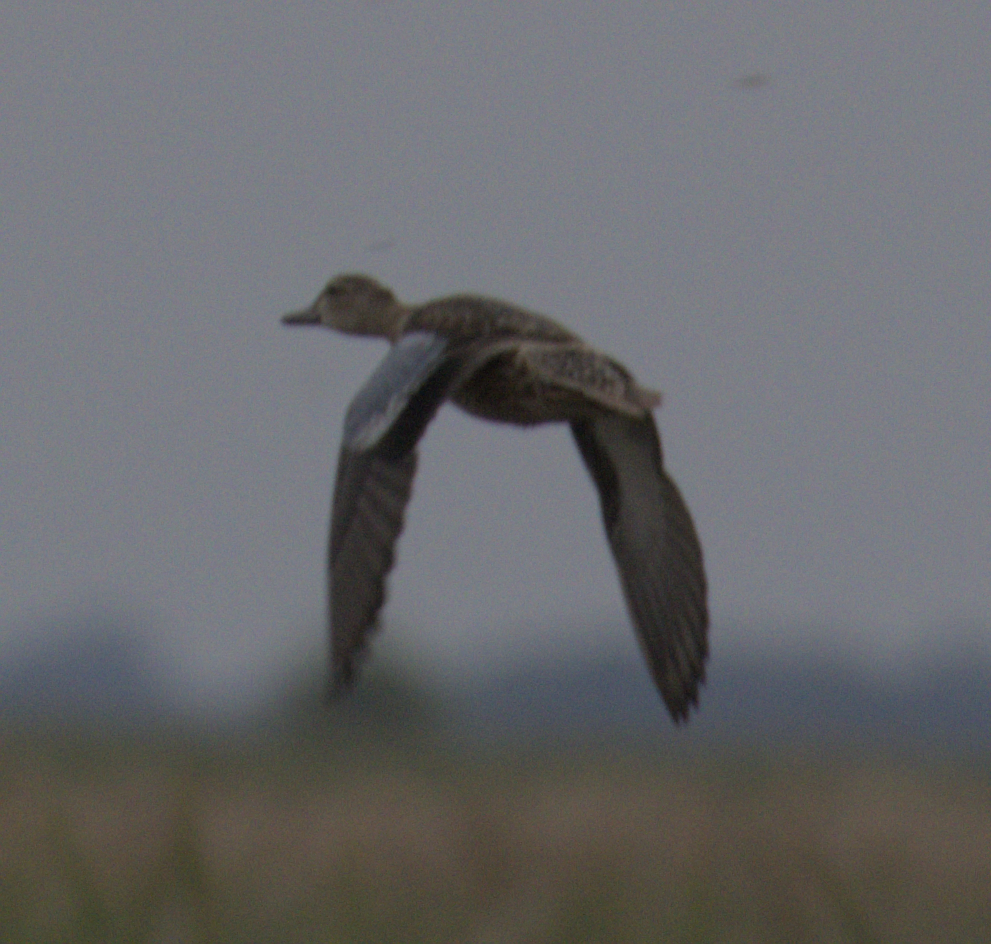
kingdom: Animalia
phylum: Chordata
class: Aves
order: Anseriformes
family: Anatidae
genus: Spatula
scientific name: Spatula discors
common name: Blue-winged teal
